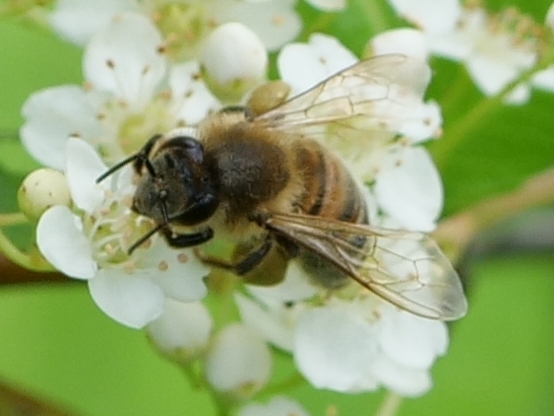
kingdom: Animalia
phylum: Arthropoda
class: Insecta
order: Hymenoptera
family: Apidae
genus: Apis
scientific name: Apis mellifera
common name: Honey bee
